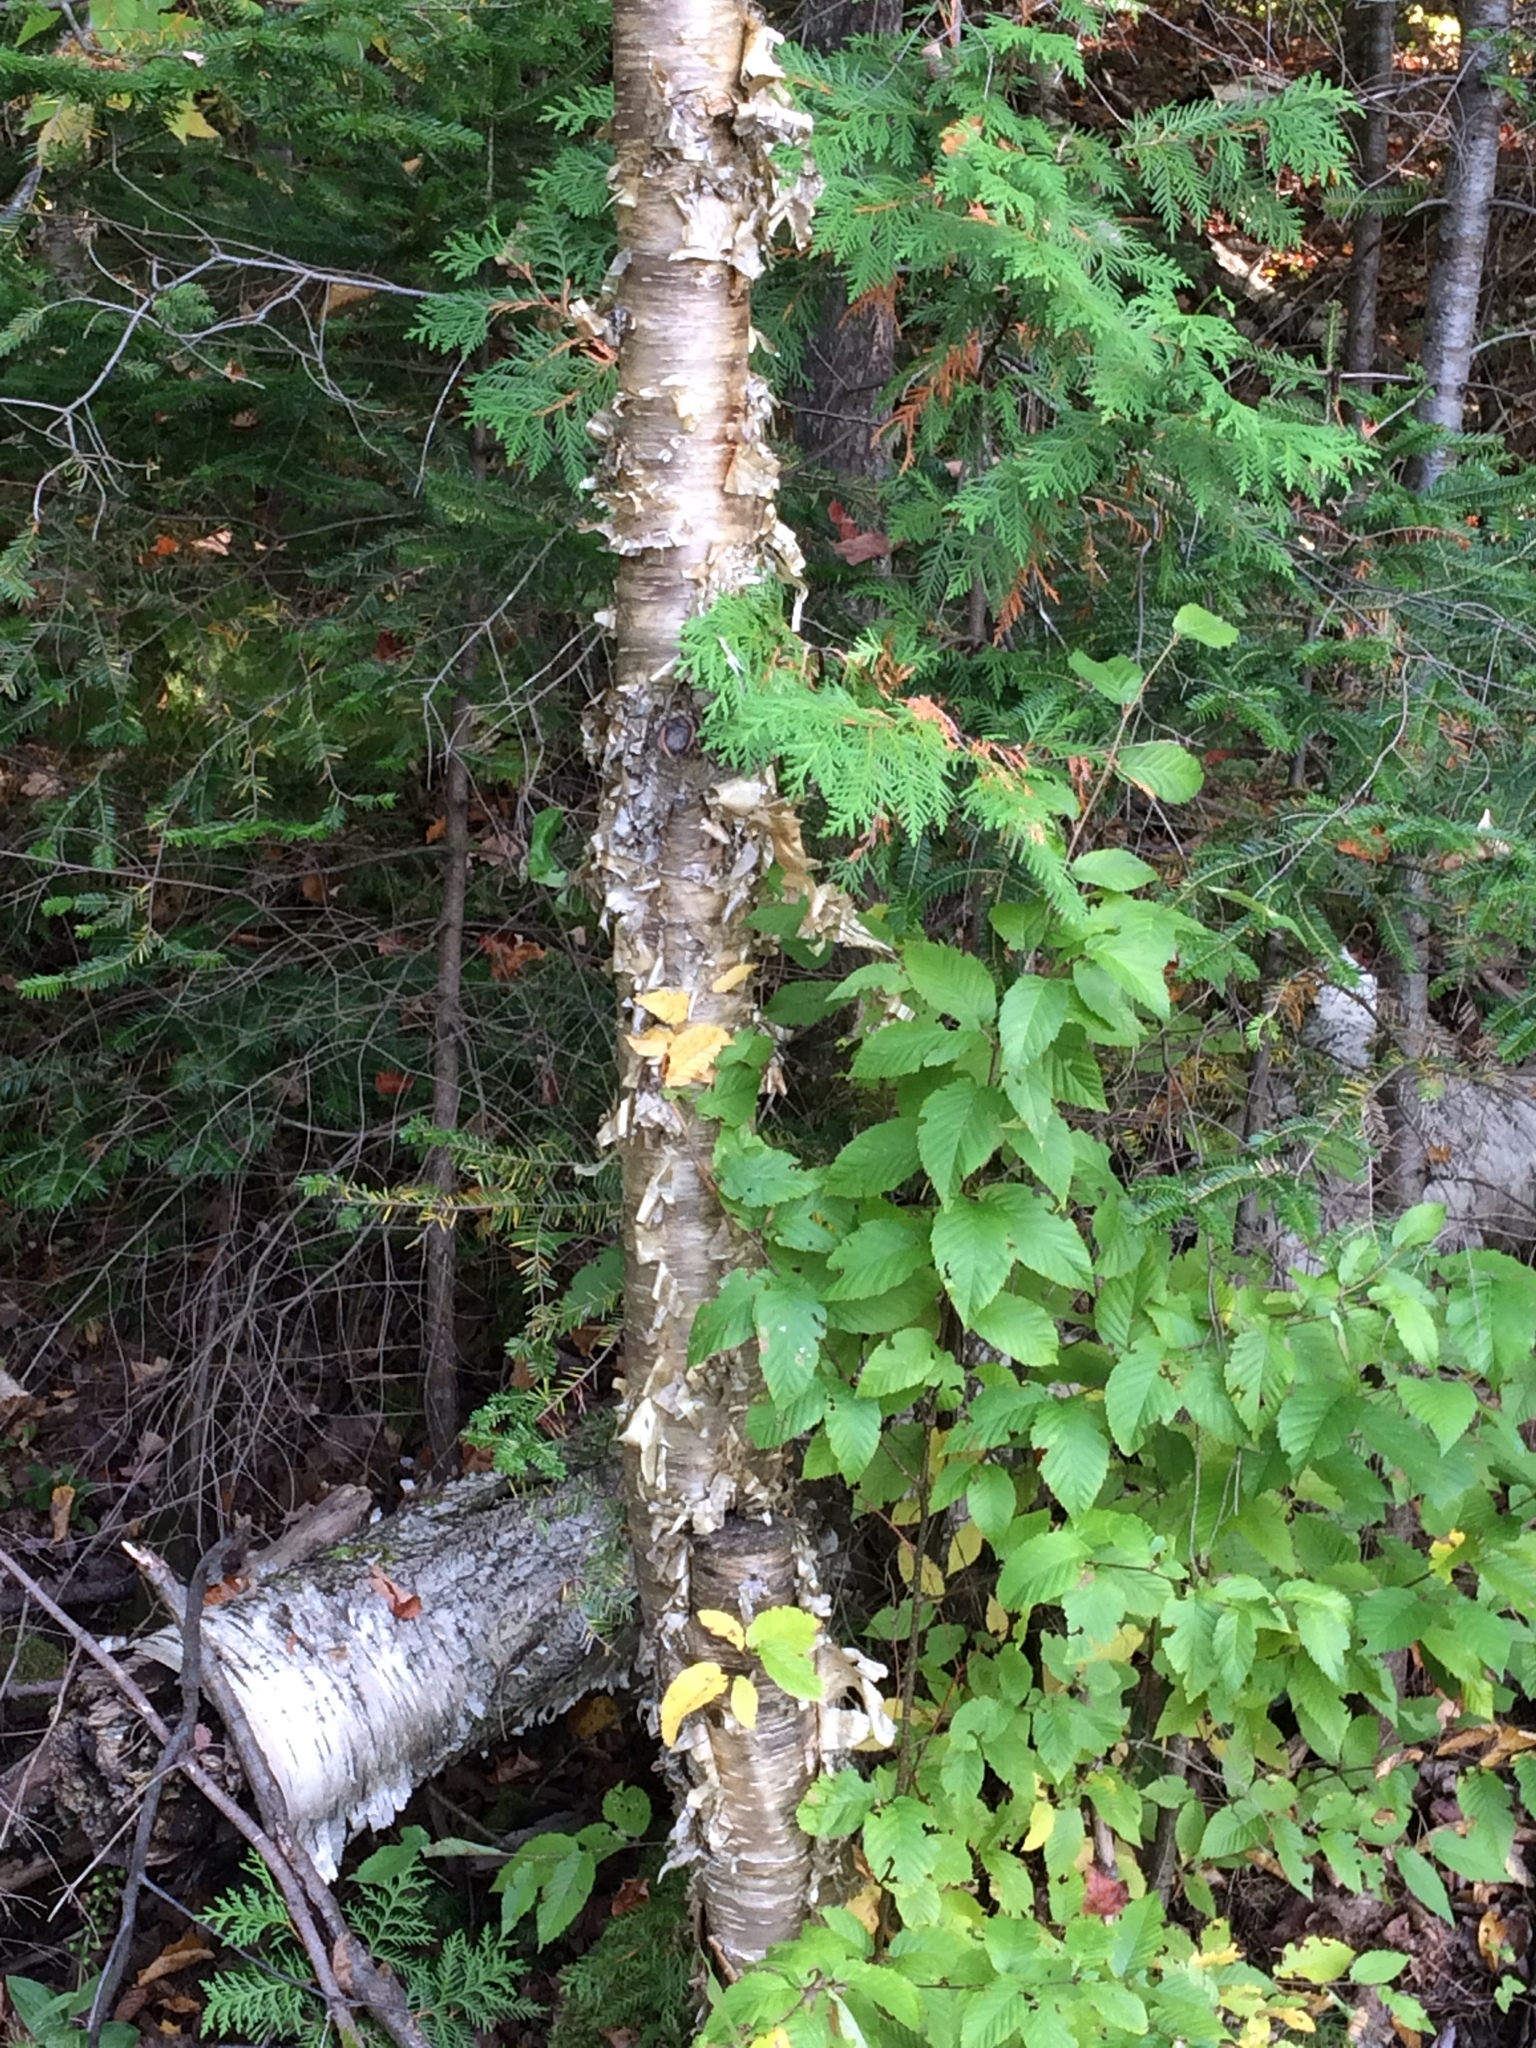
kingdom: Plantae
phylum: Tracheophyta
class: Magnoliopsida
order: Fagales
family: Betulaceae
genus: Betula
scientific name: Betula alleghaniensis
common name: Yellow birch
